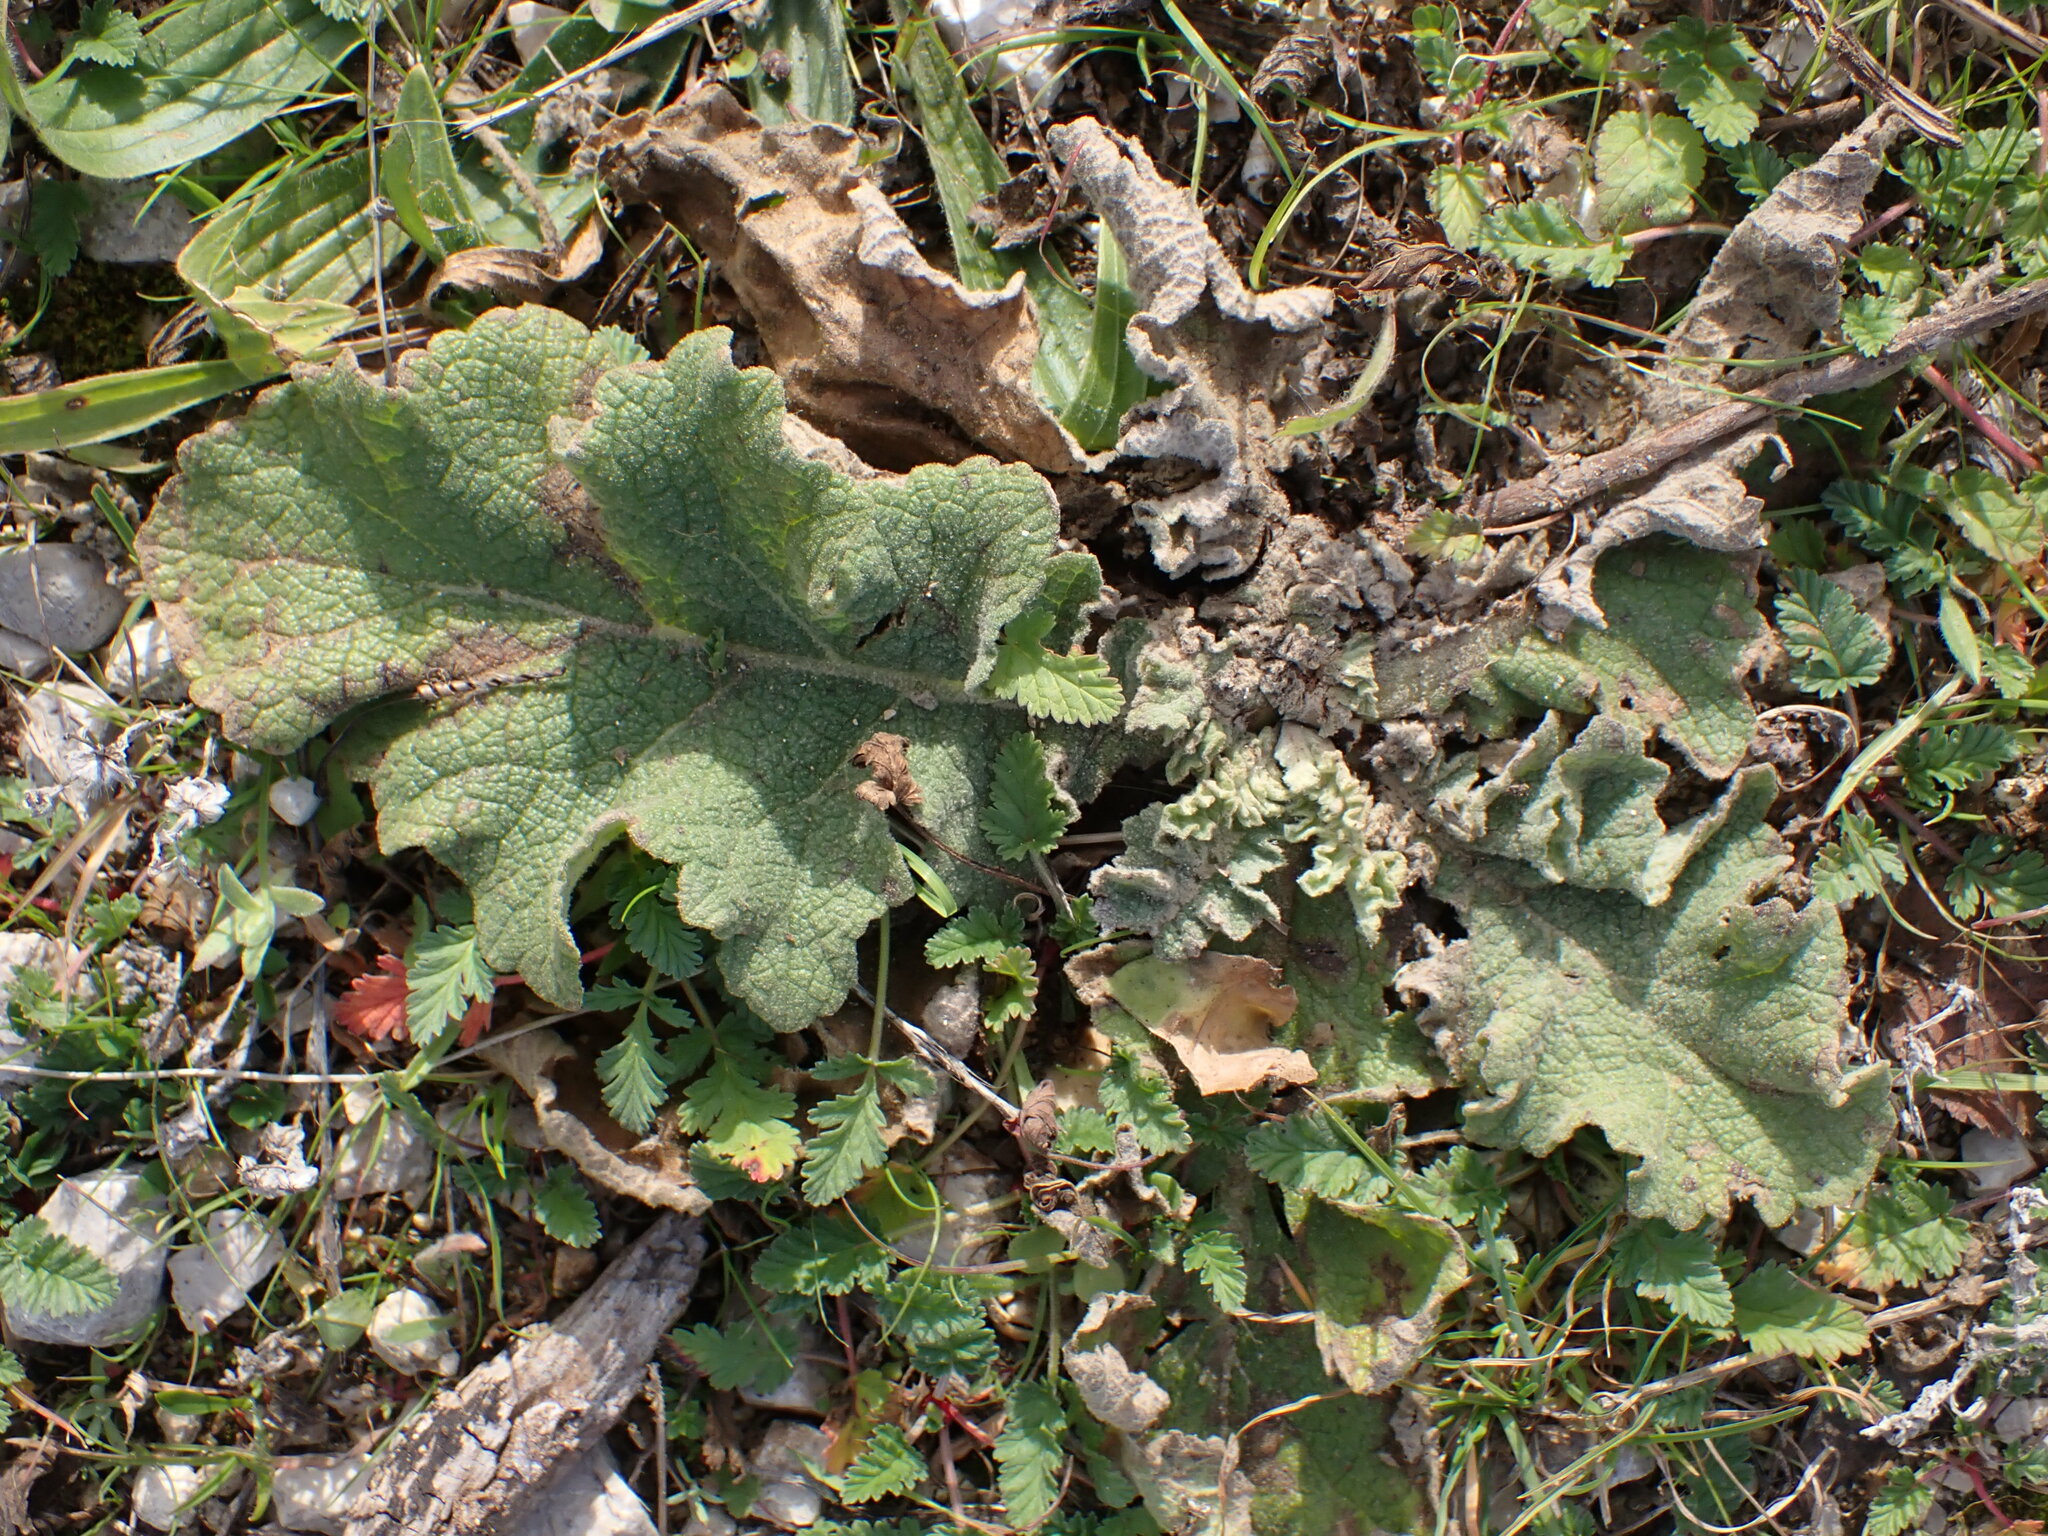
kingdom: Plantae
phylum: Tracheophyta
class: Magnoliopsida
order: Lamiales
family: Scrophulariaceae
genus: Verbascum
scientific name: Verbascum sinuatum
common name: Wavyleaf mullein
